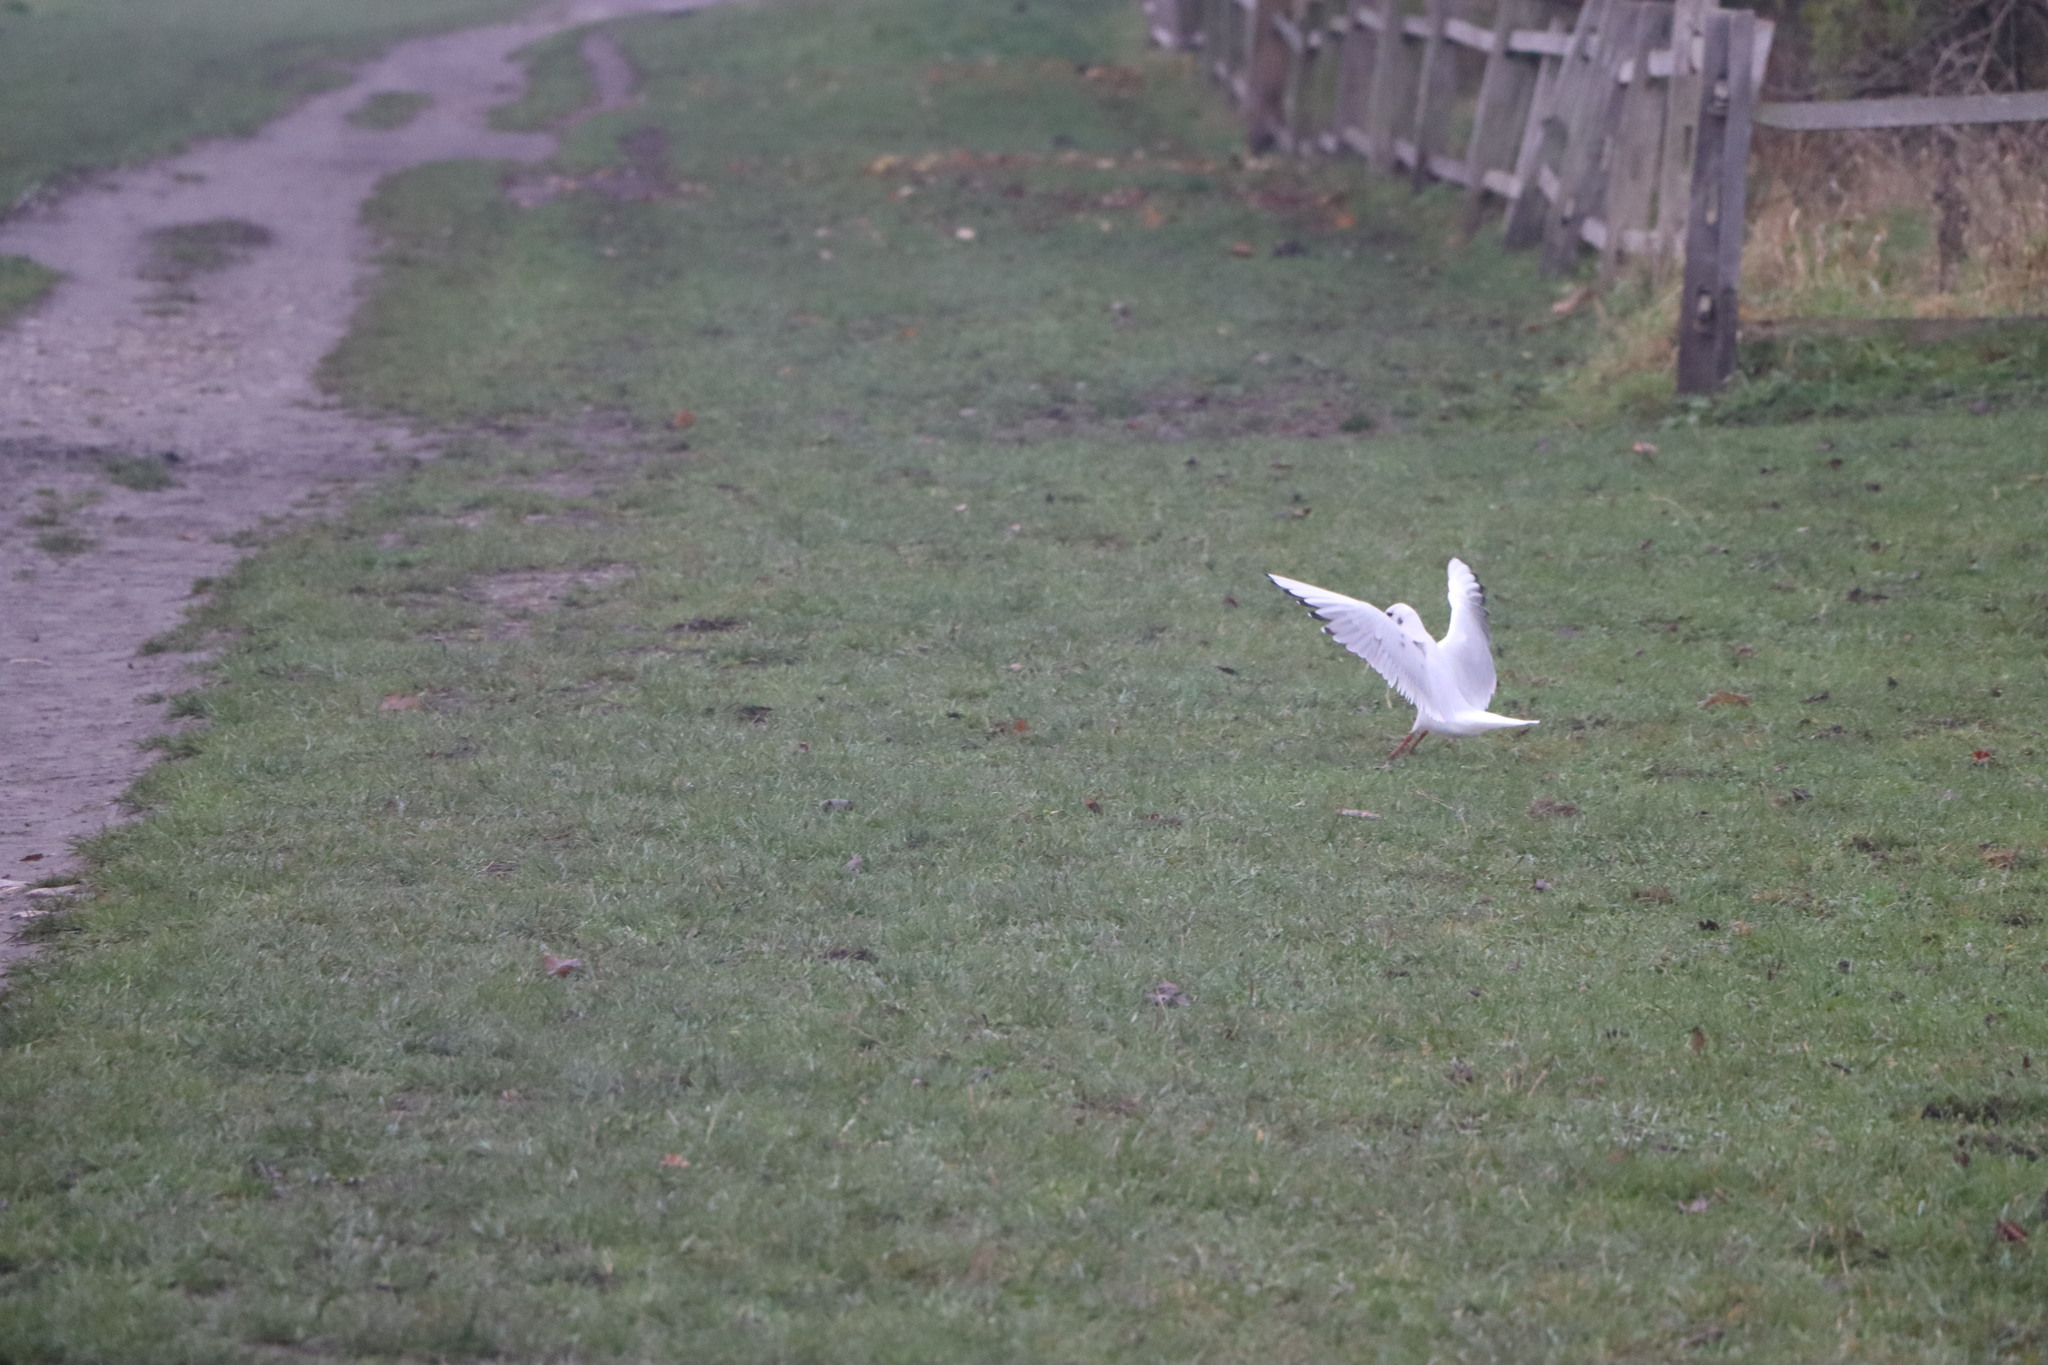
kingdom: Animalia
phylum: Chordata
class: Aves
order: Charadriiformes
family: Laridae
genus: Chroicocephalus
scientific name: Chroicocephalus ridibundus
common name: Black-headed gull
